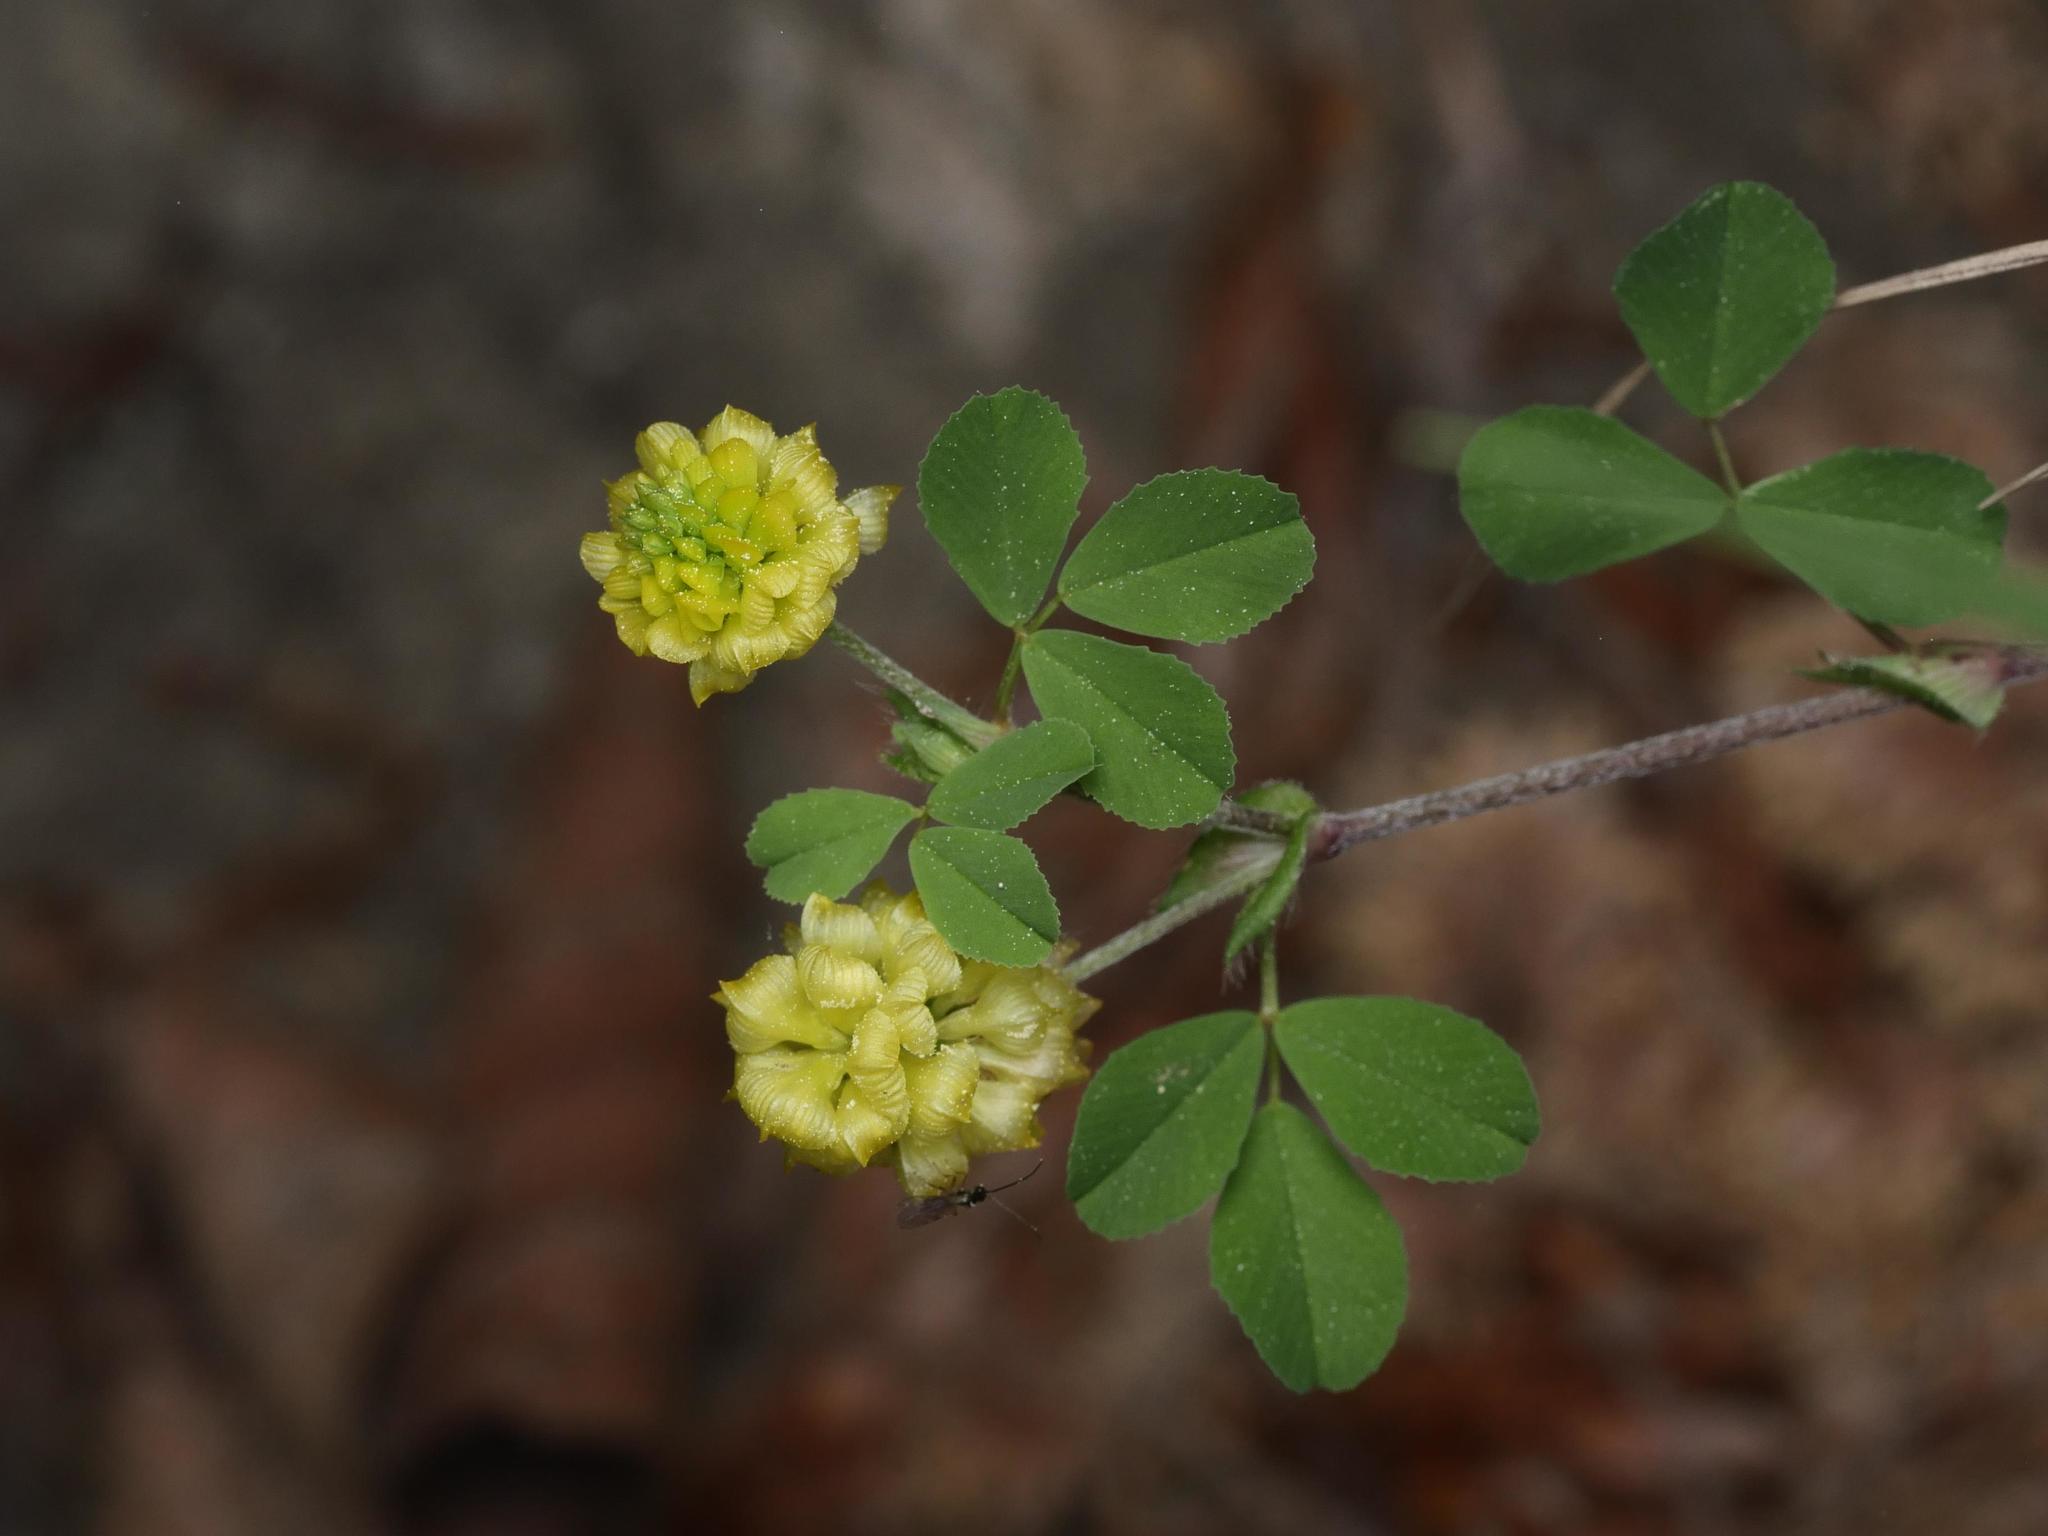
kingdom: Plantae
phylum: Tracheophyta
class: Magnoliopsida
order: Fabales
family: Fabaceae
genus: Trifolium
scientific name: Trifolium campestre
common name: Field clover
